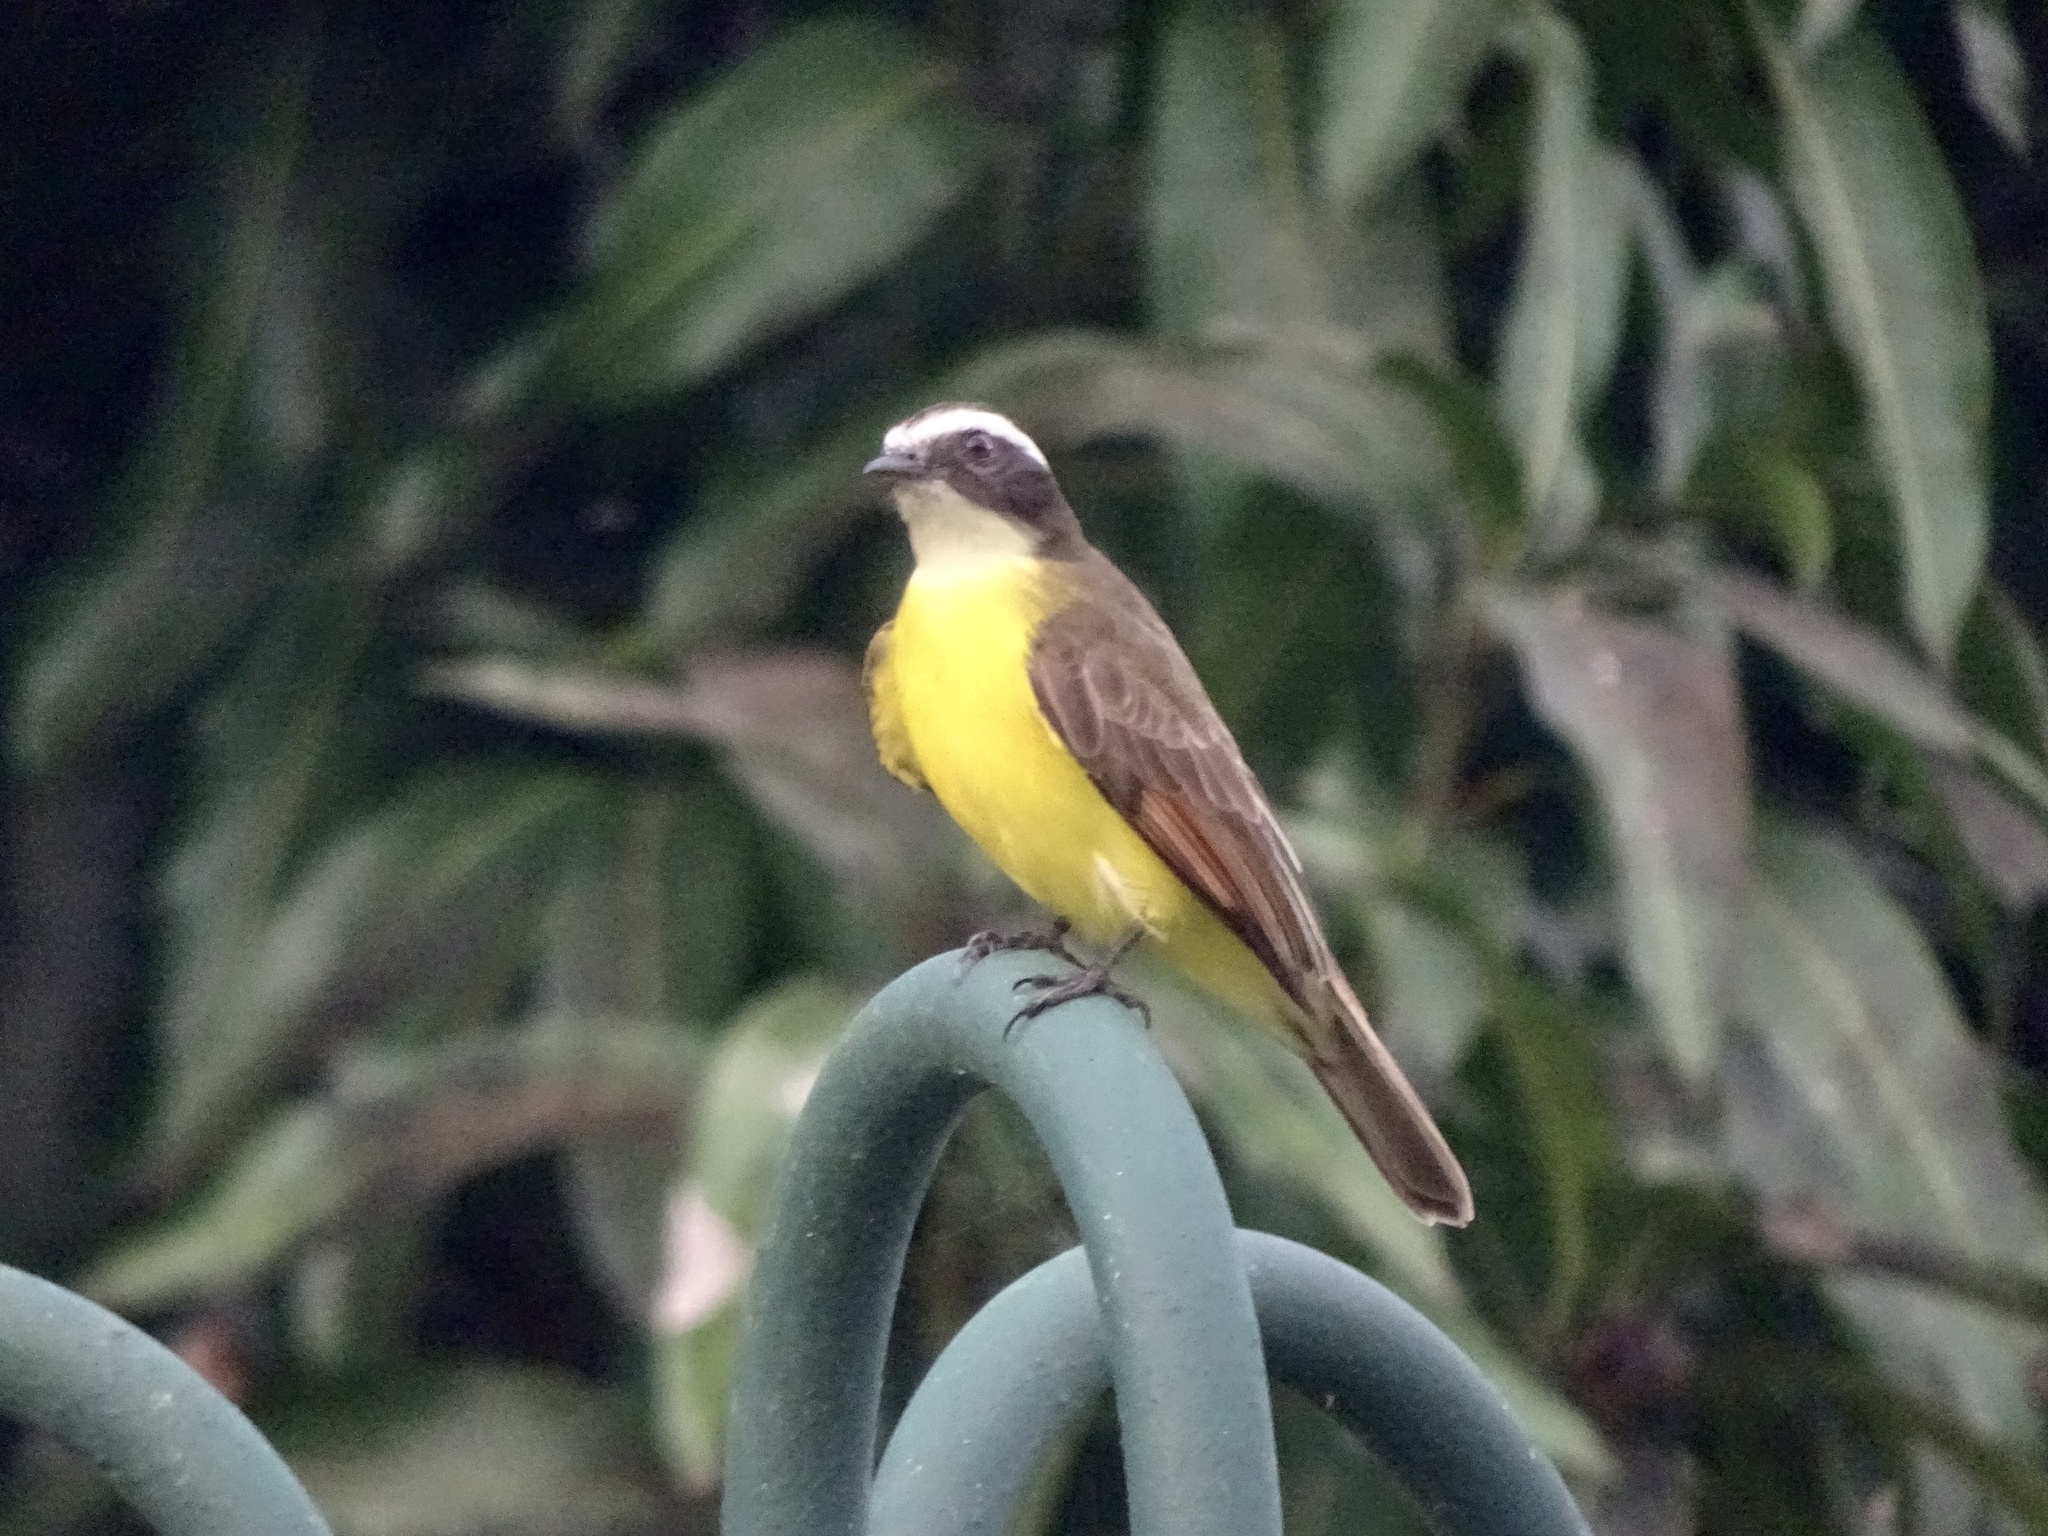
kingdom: Animalia
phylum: Chordata
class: Aves
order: Passeriformes
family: Tyrannidae
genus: Myiozetetes
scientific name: Myiozetetes cayanensis
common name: Rusty-margined flycatcher
